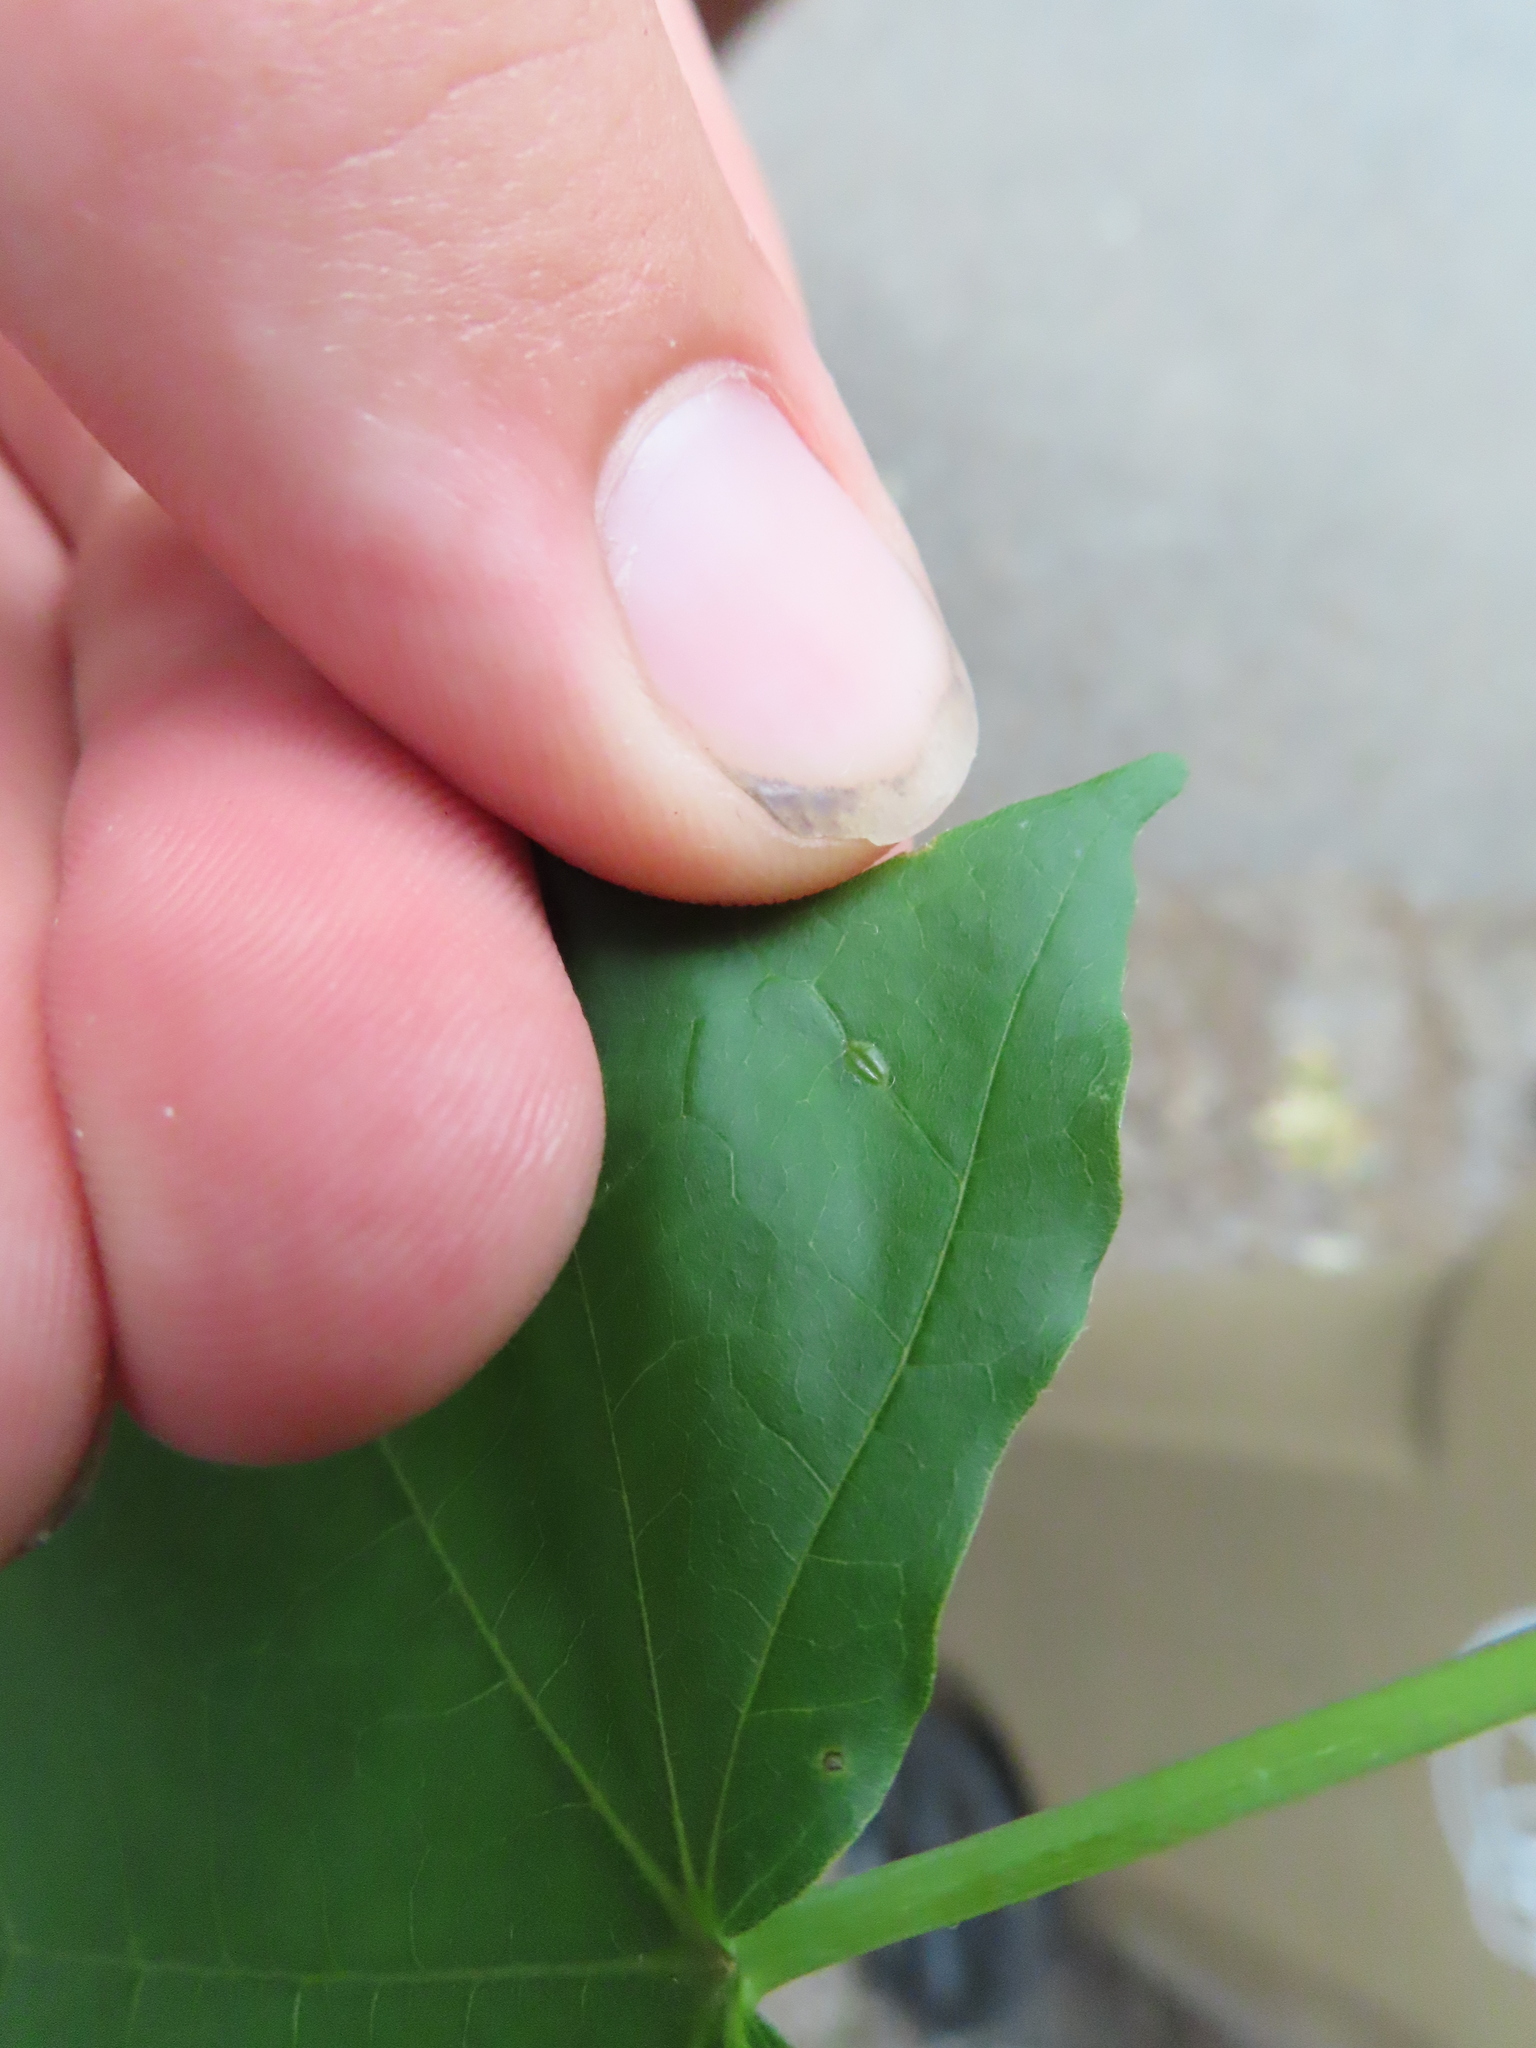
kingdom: Animalia
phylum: Arthropoda
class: Insecta
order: Diptera
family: Cecidomyiidae
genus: Dasineura
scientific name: Dasineura communis
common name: Gouty vein midge
